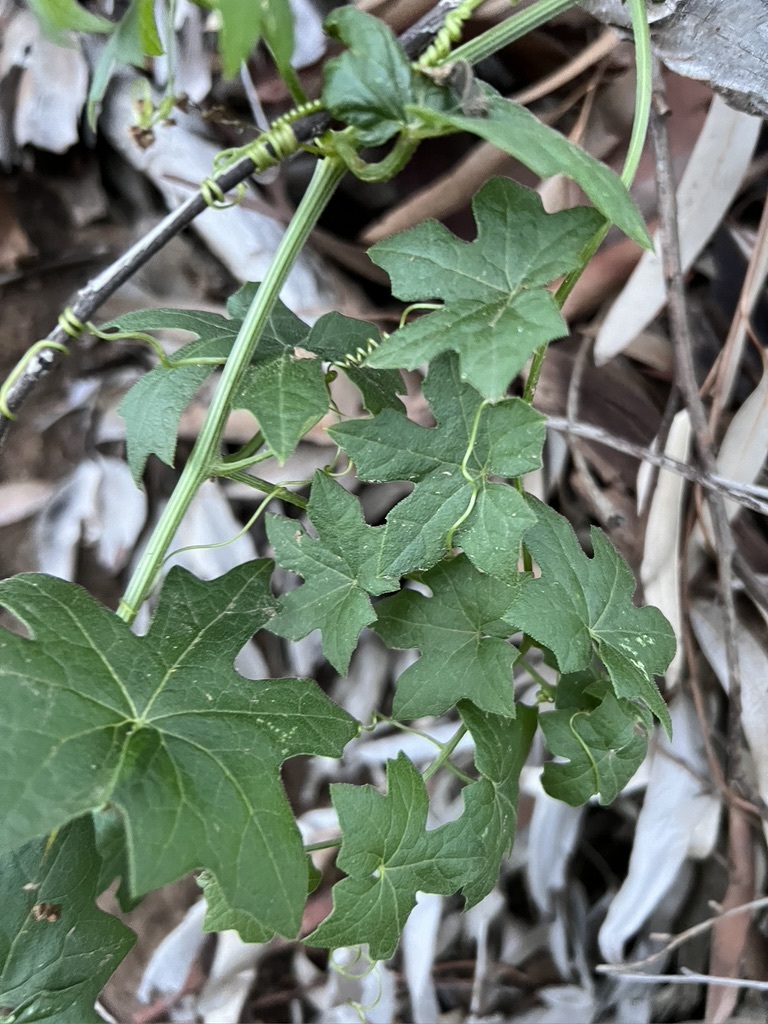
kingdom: Plantae
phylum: Tracheophyta
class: Magnoliopsida
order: Cucurbitales
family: Cucurbitaceae
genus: Marah
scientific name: Marah macrocarpa
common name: Cucamonga manroot
